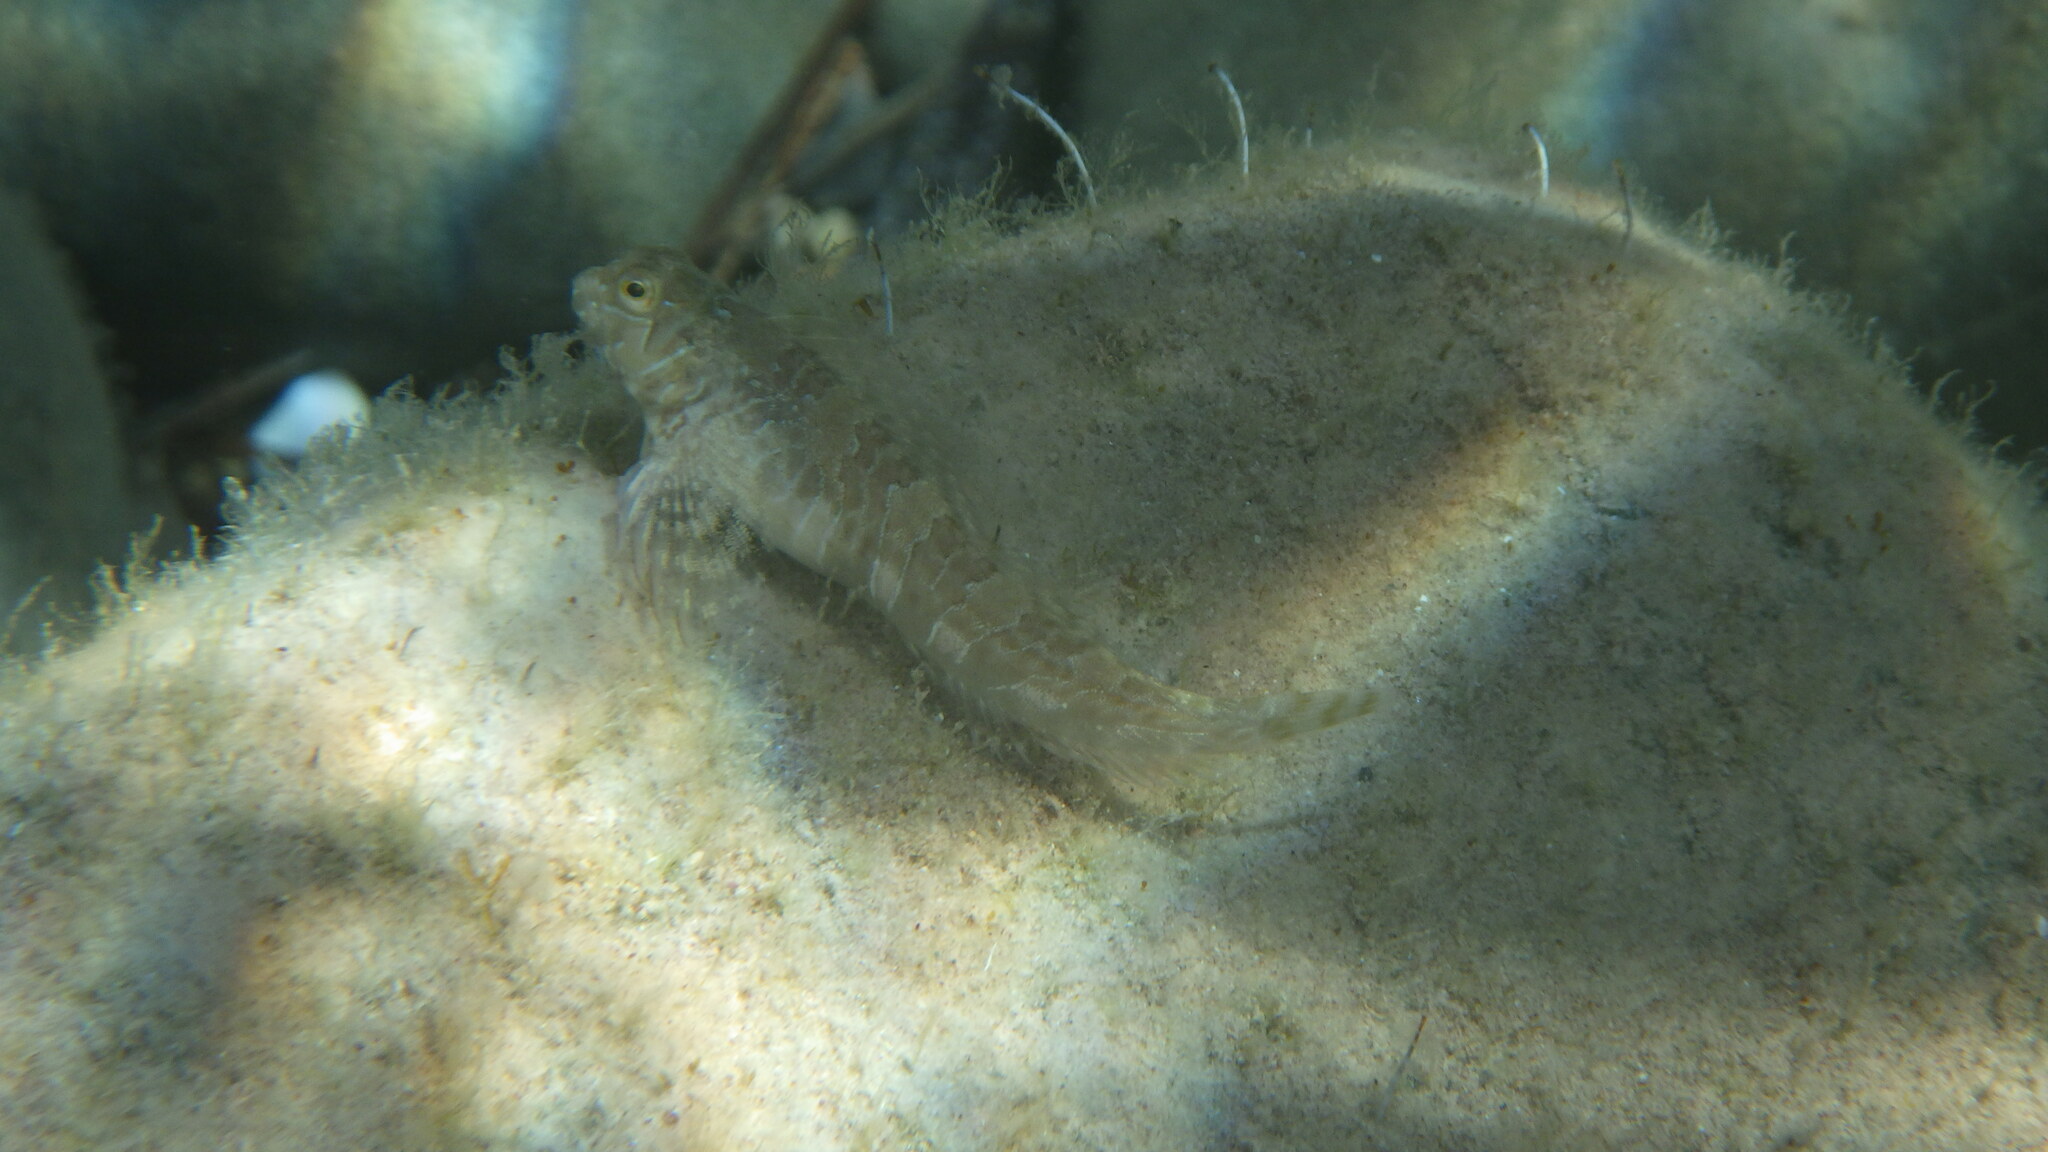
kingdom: Animalia
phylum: Chordata
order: Perciformes
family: Blenniidae
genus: Aidablennius
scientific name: Aidablennius sphynx
